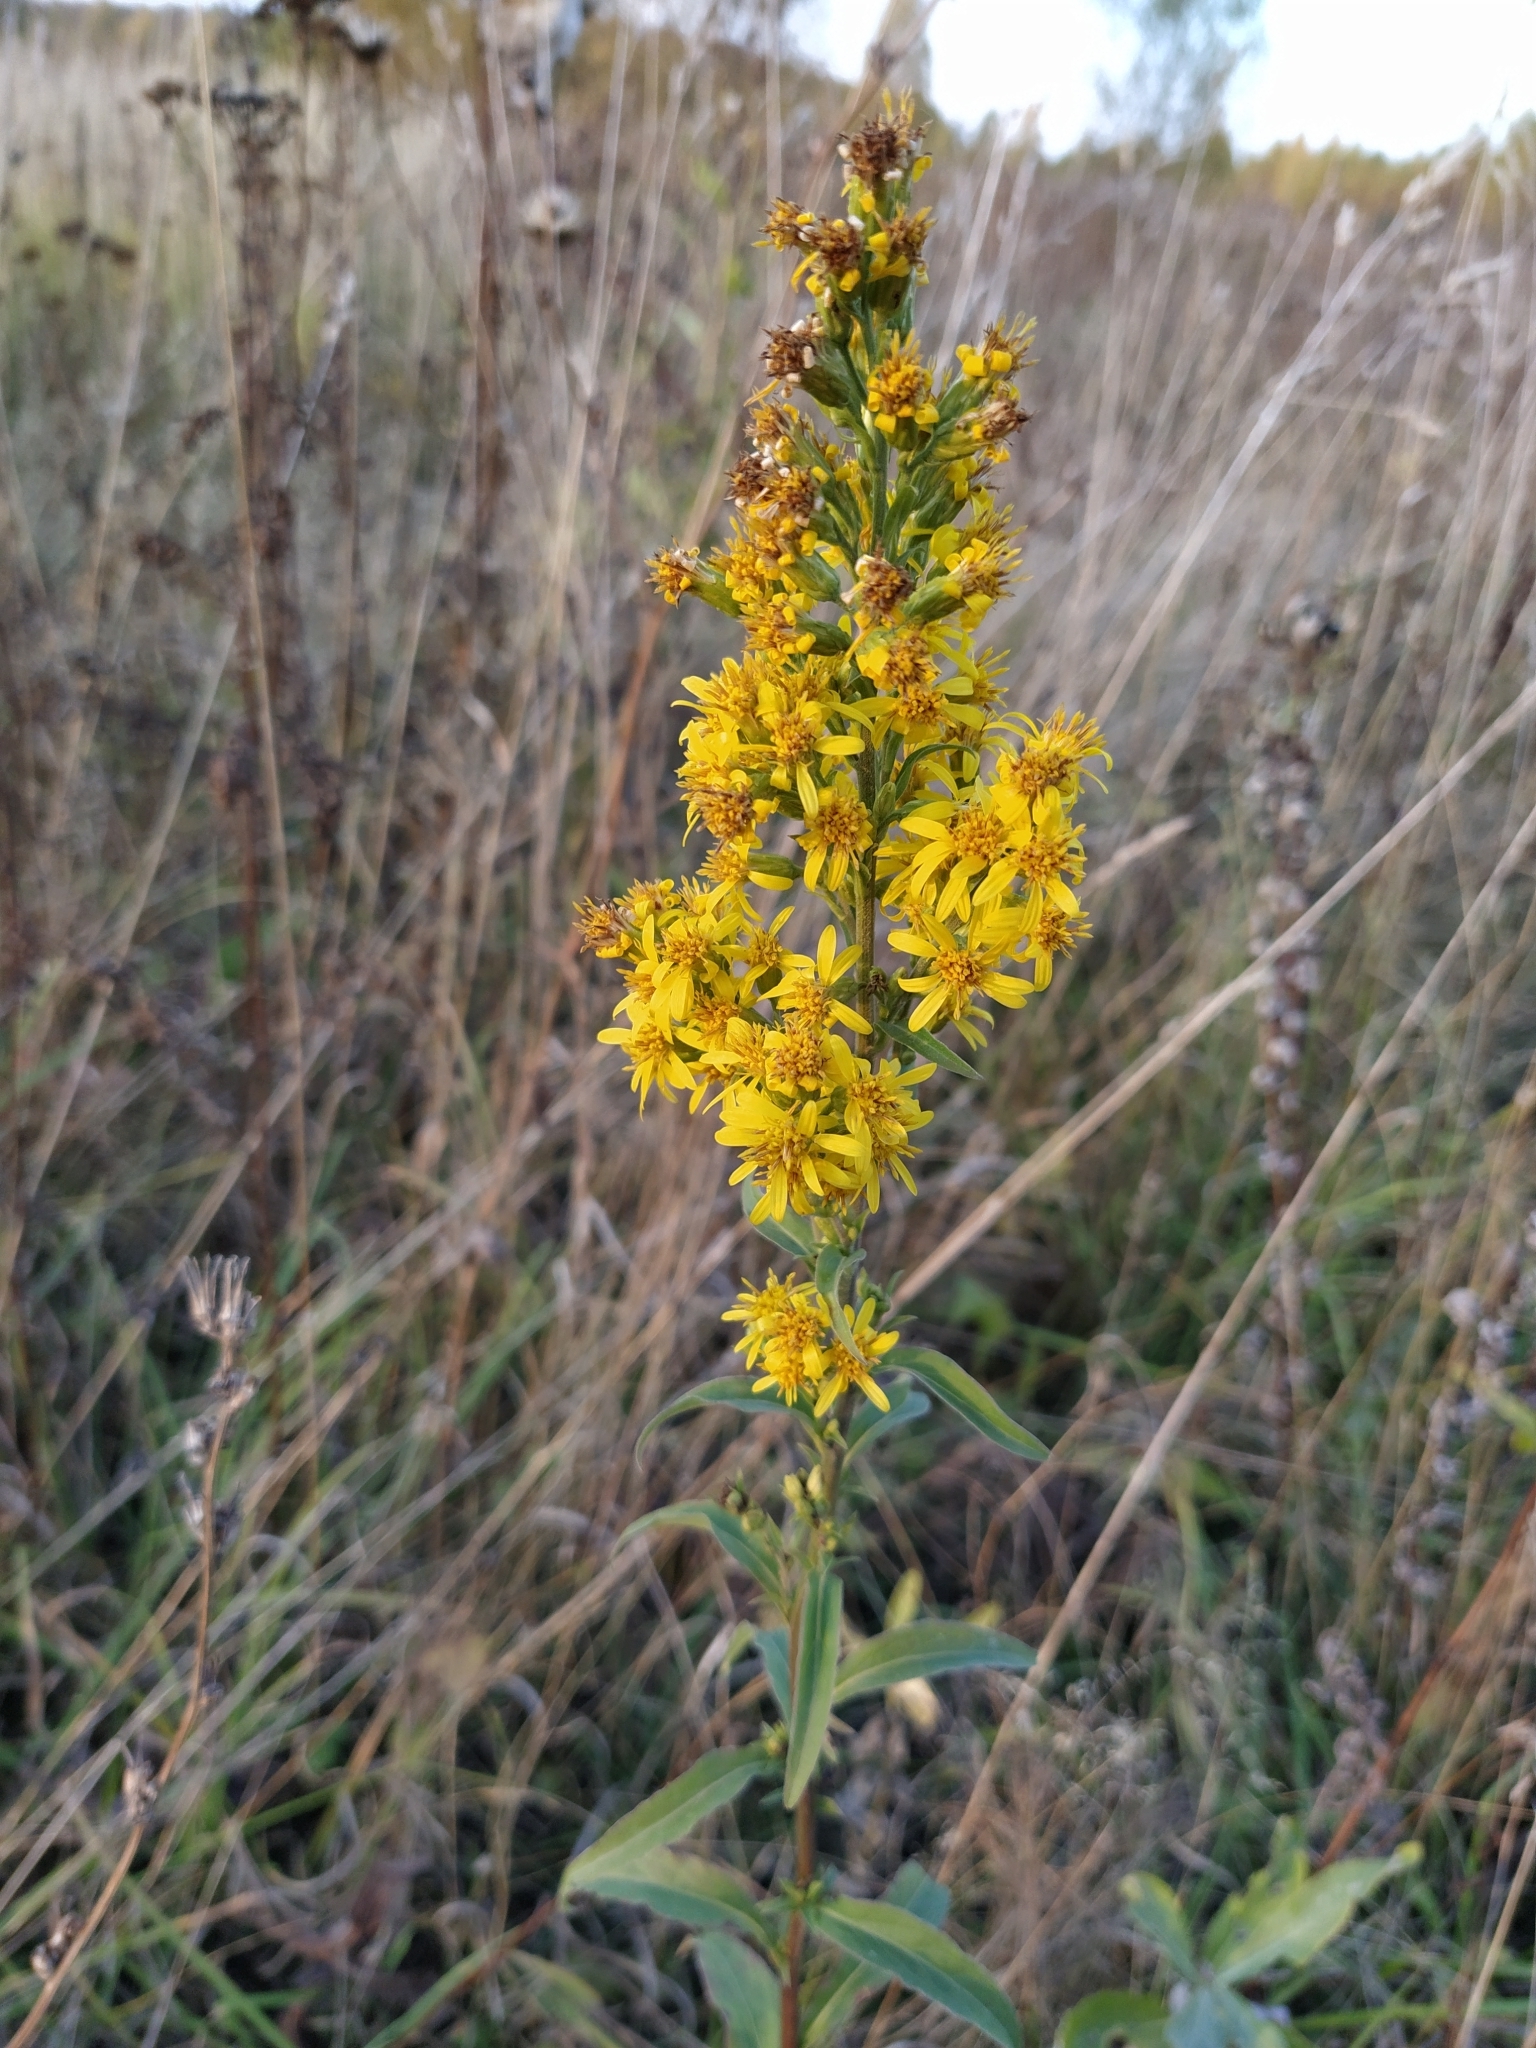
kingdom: Plantae
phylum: Tracheophyta
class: Magnoliopsida
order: Asterales
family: Asteraceae
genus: Solidago
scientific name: Solidago virgaurea
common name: Goldenrod
